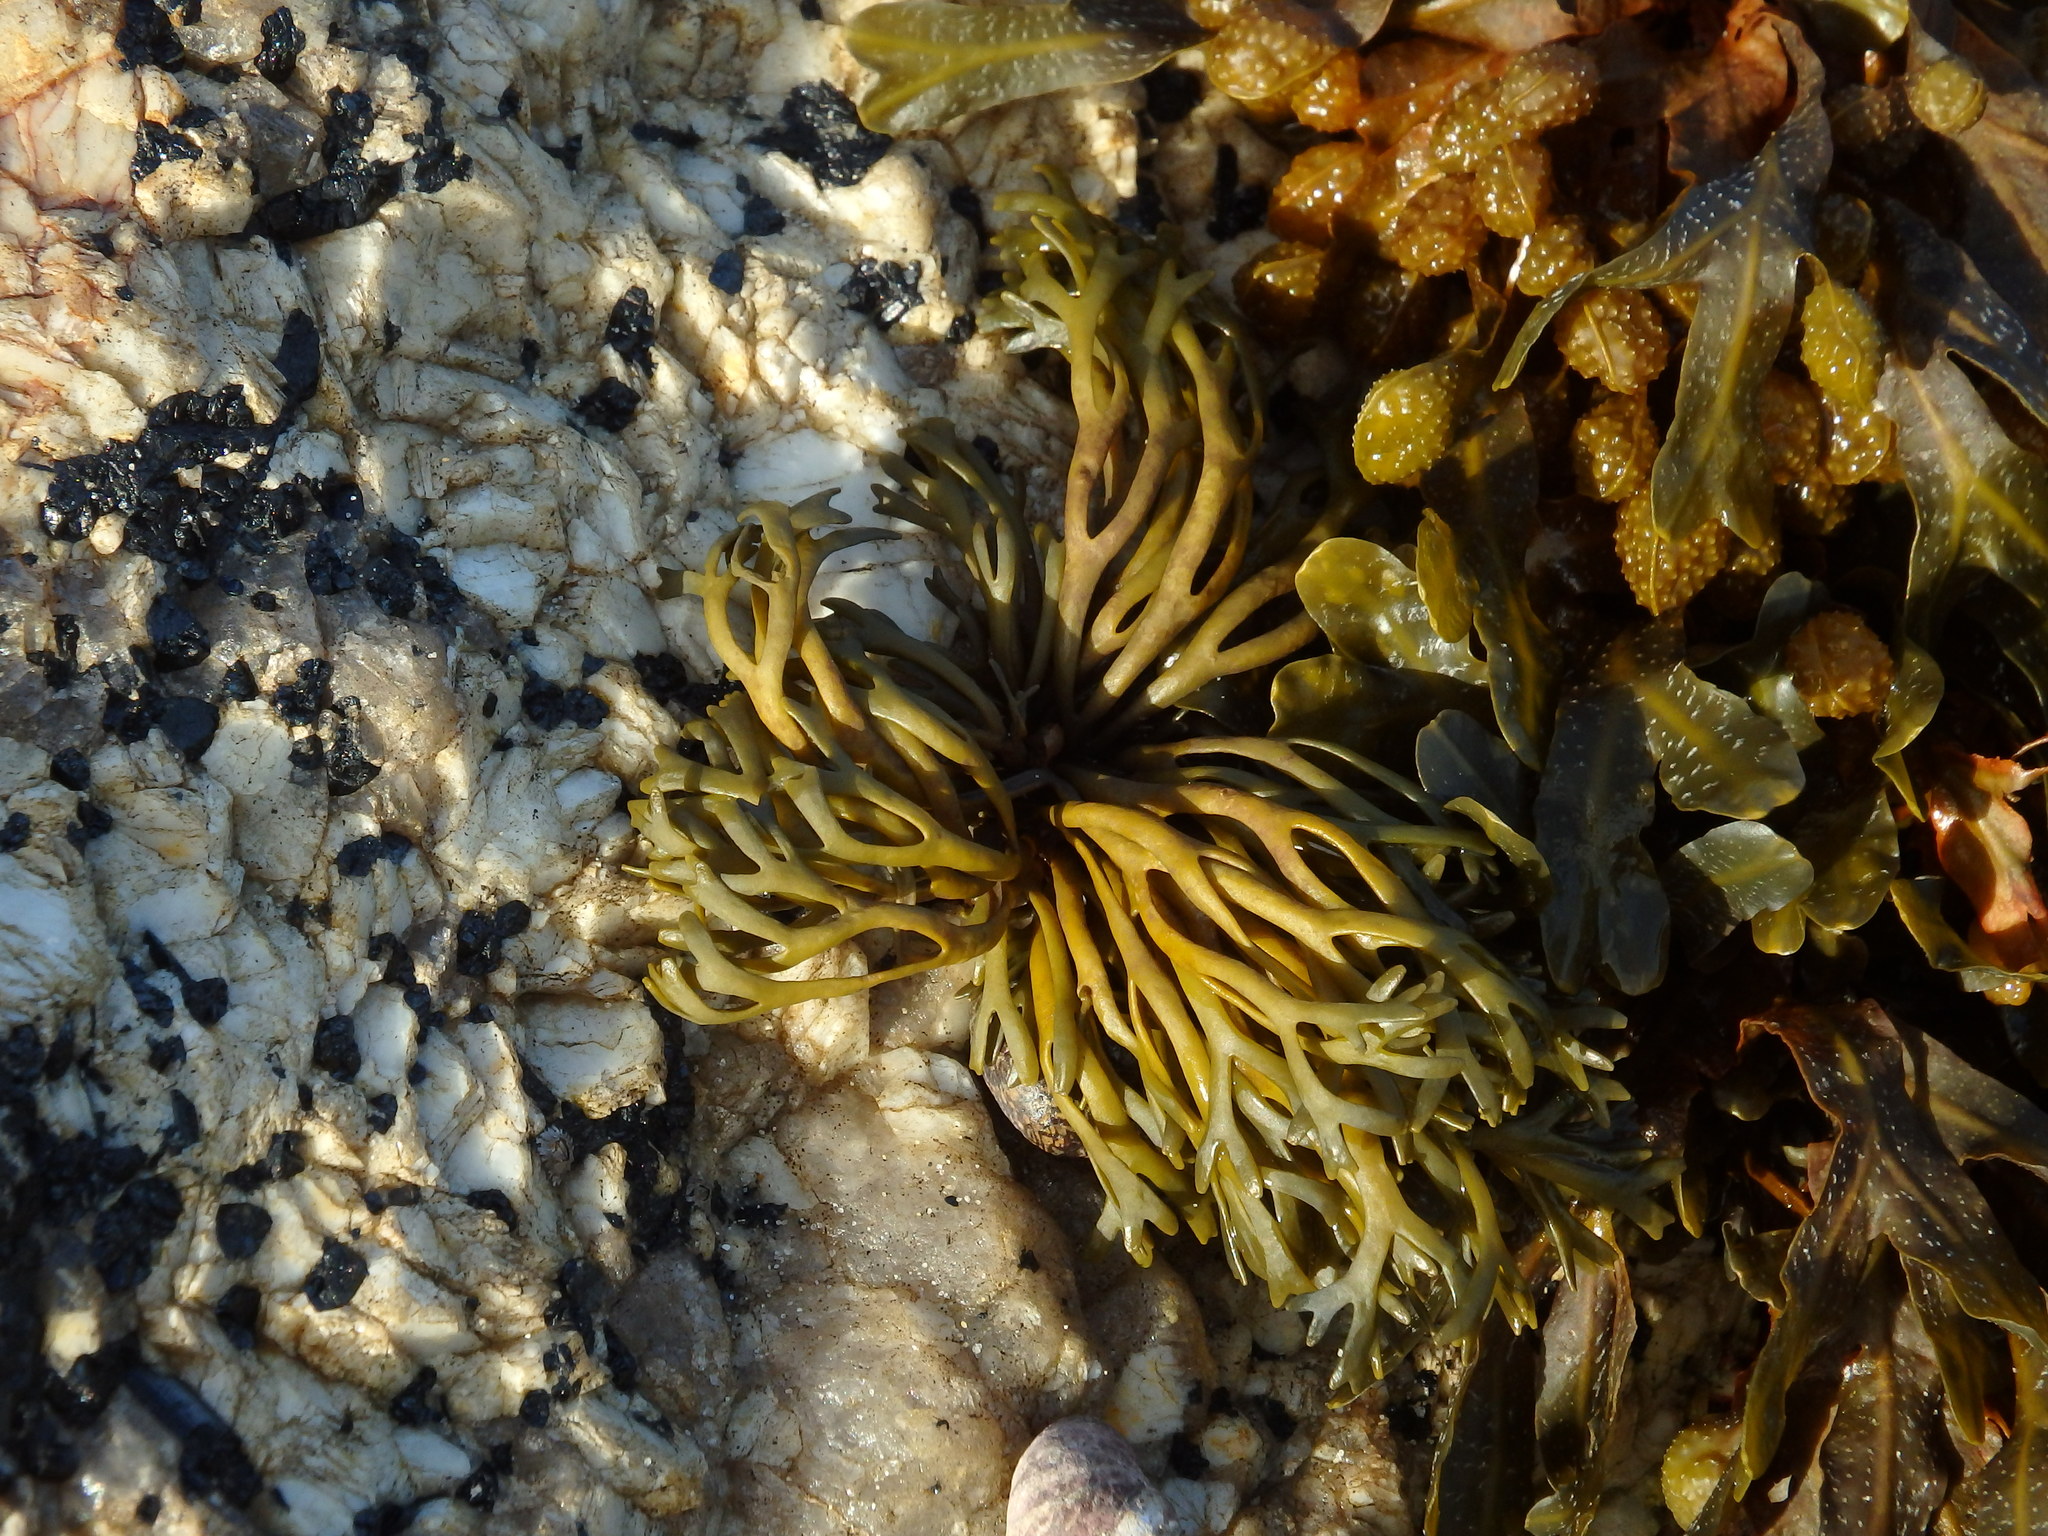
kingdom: Chromista
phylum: Ochrophyta
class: Phaeophyceae
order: Fucales
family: Fucaceae
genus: Pelvetia
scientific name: Pelvetia canaliculata
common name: Channelled wrack
